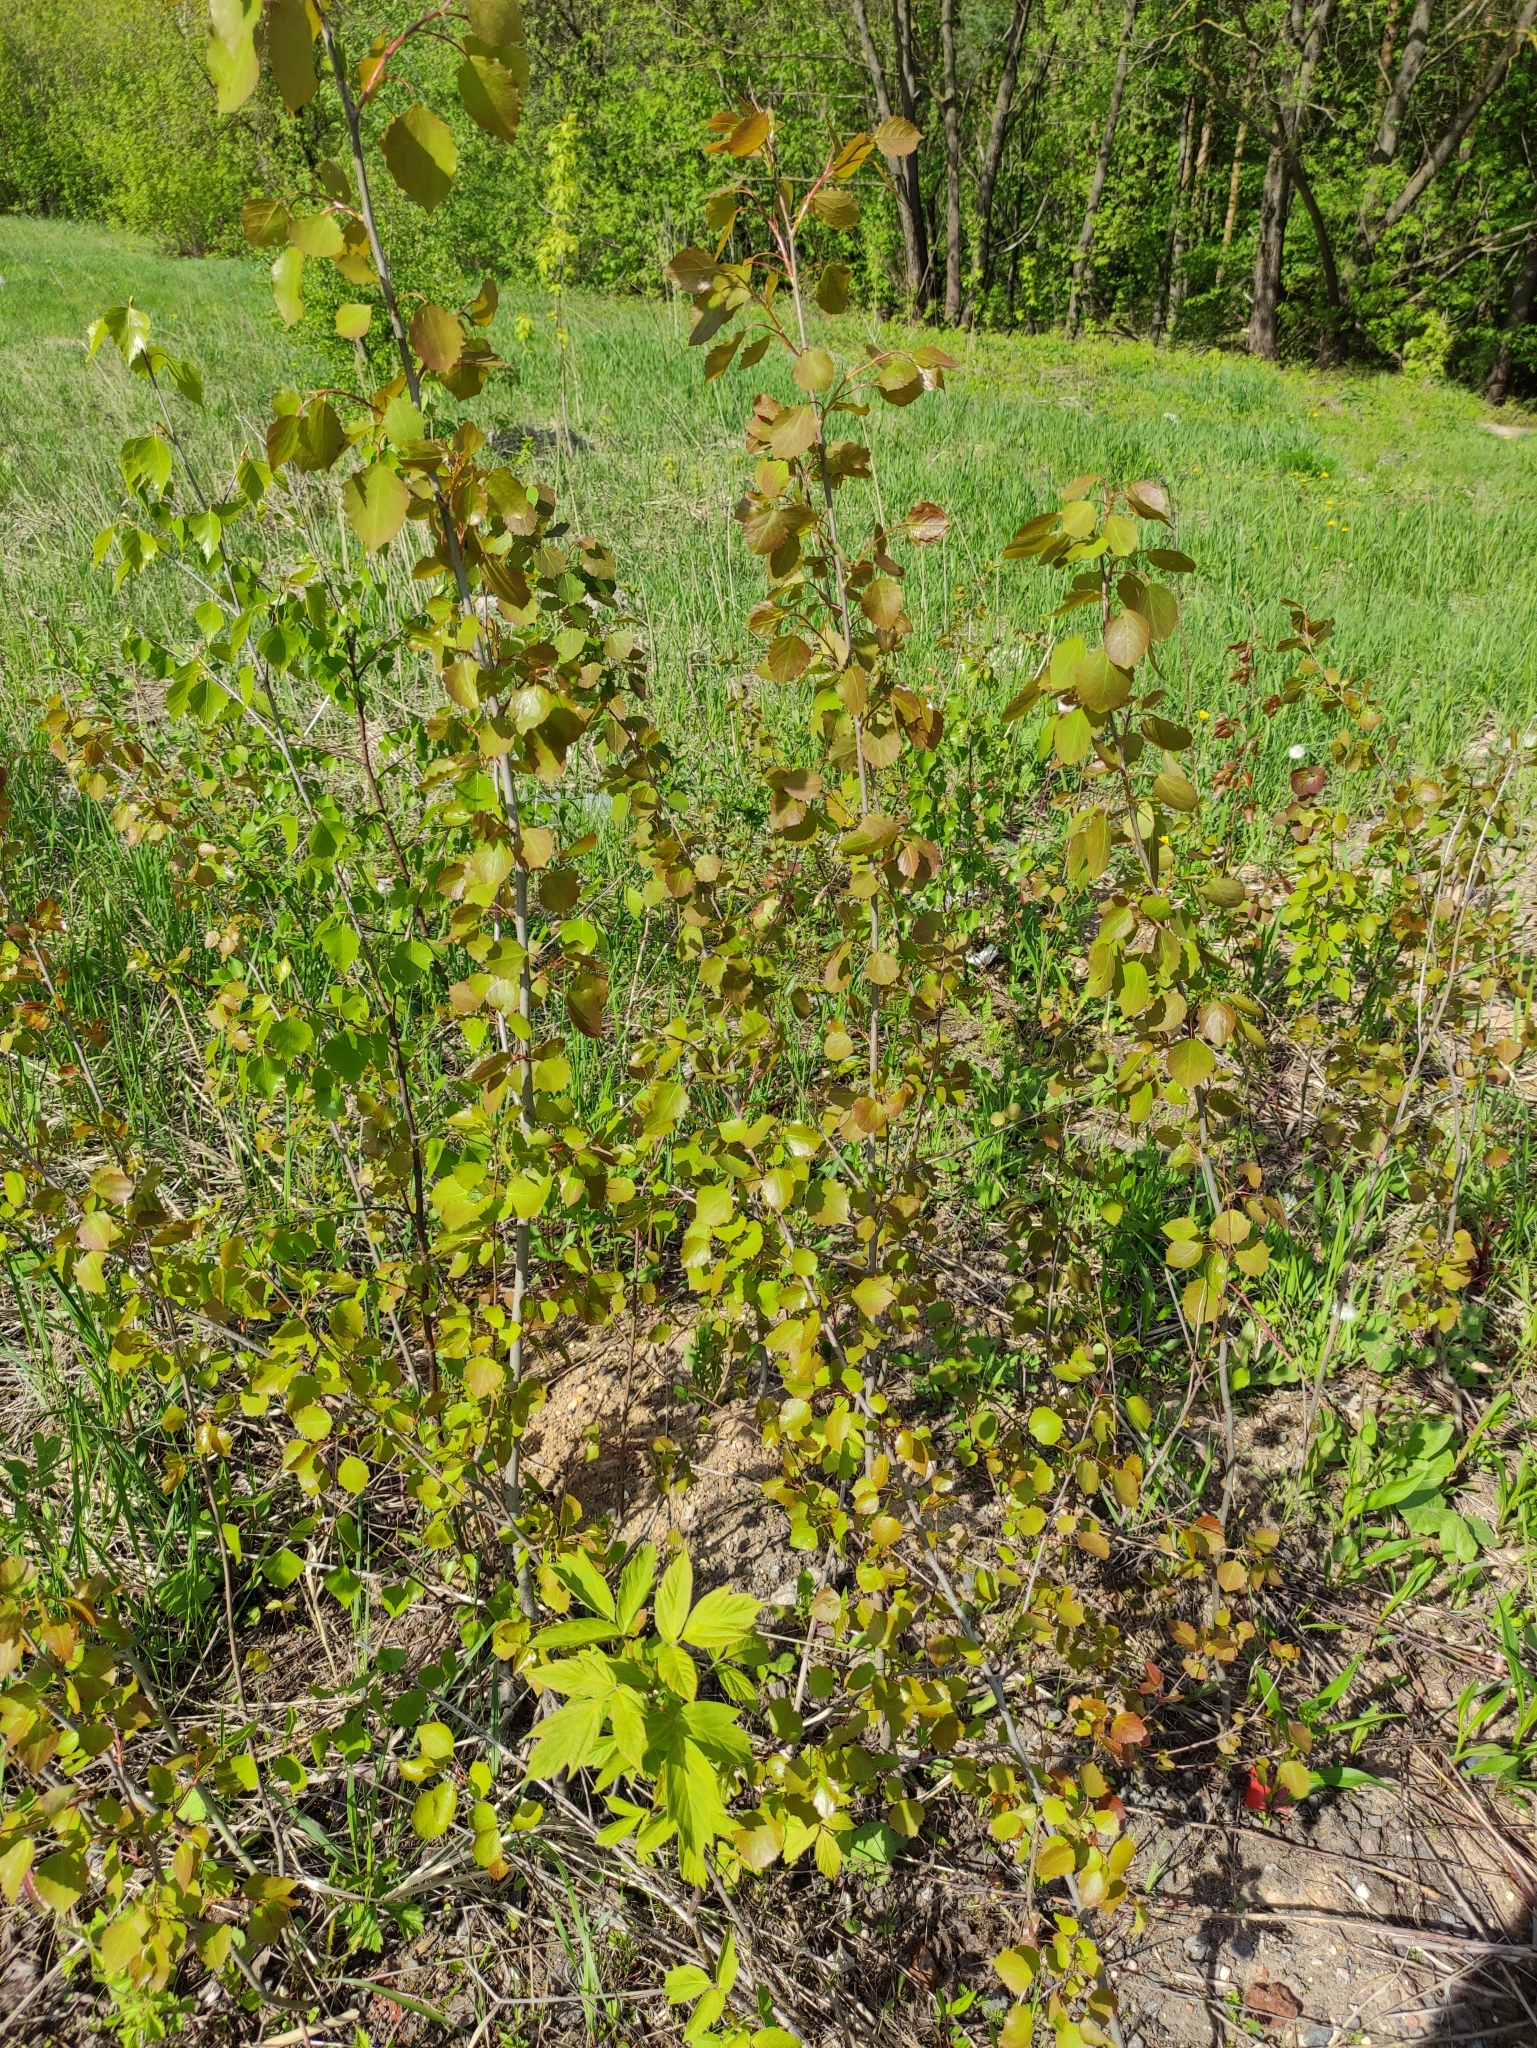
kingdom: Plantae
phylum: Tracheophyta
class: Magnoliopsida
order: Malpighiales
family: Salicaceae
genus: Populus
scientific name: Populus tremula
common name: European aspen
